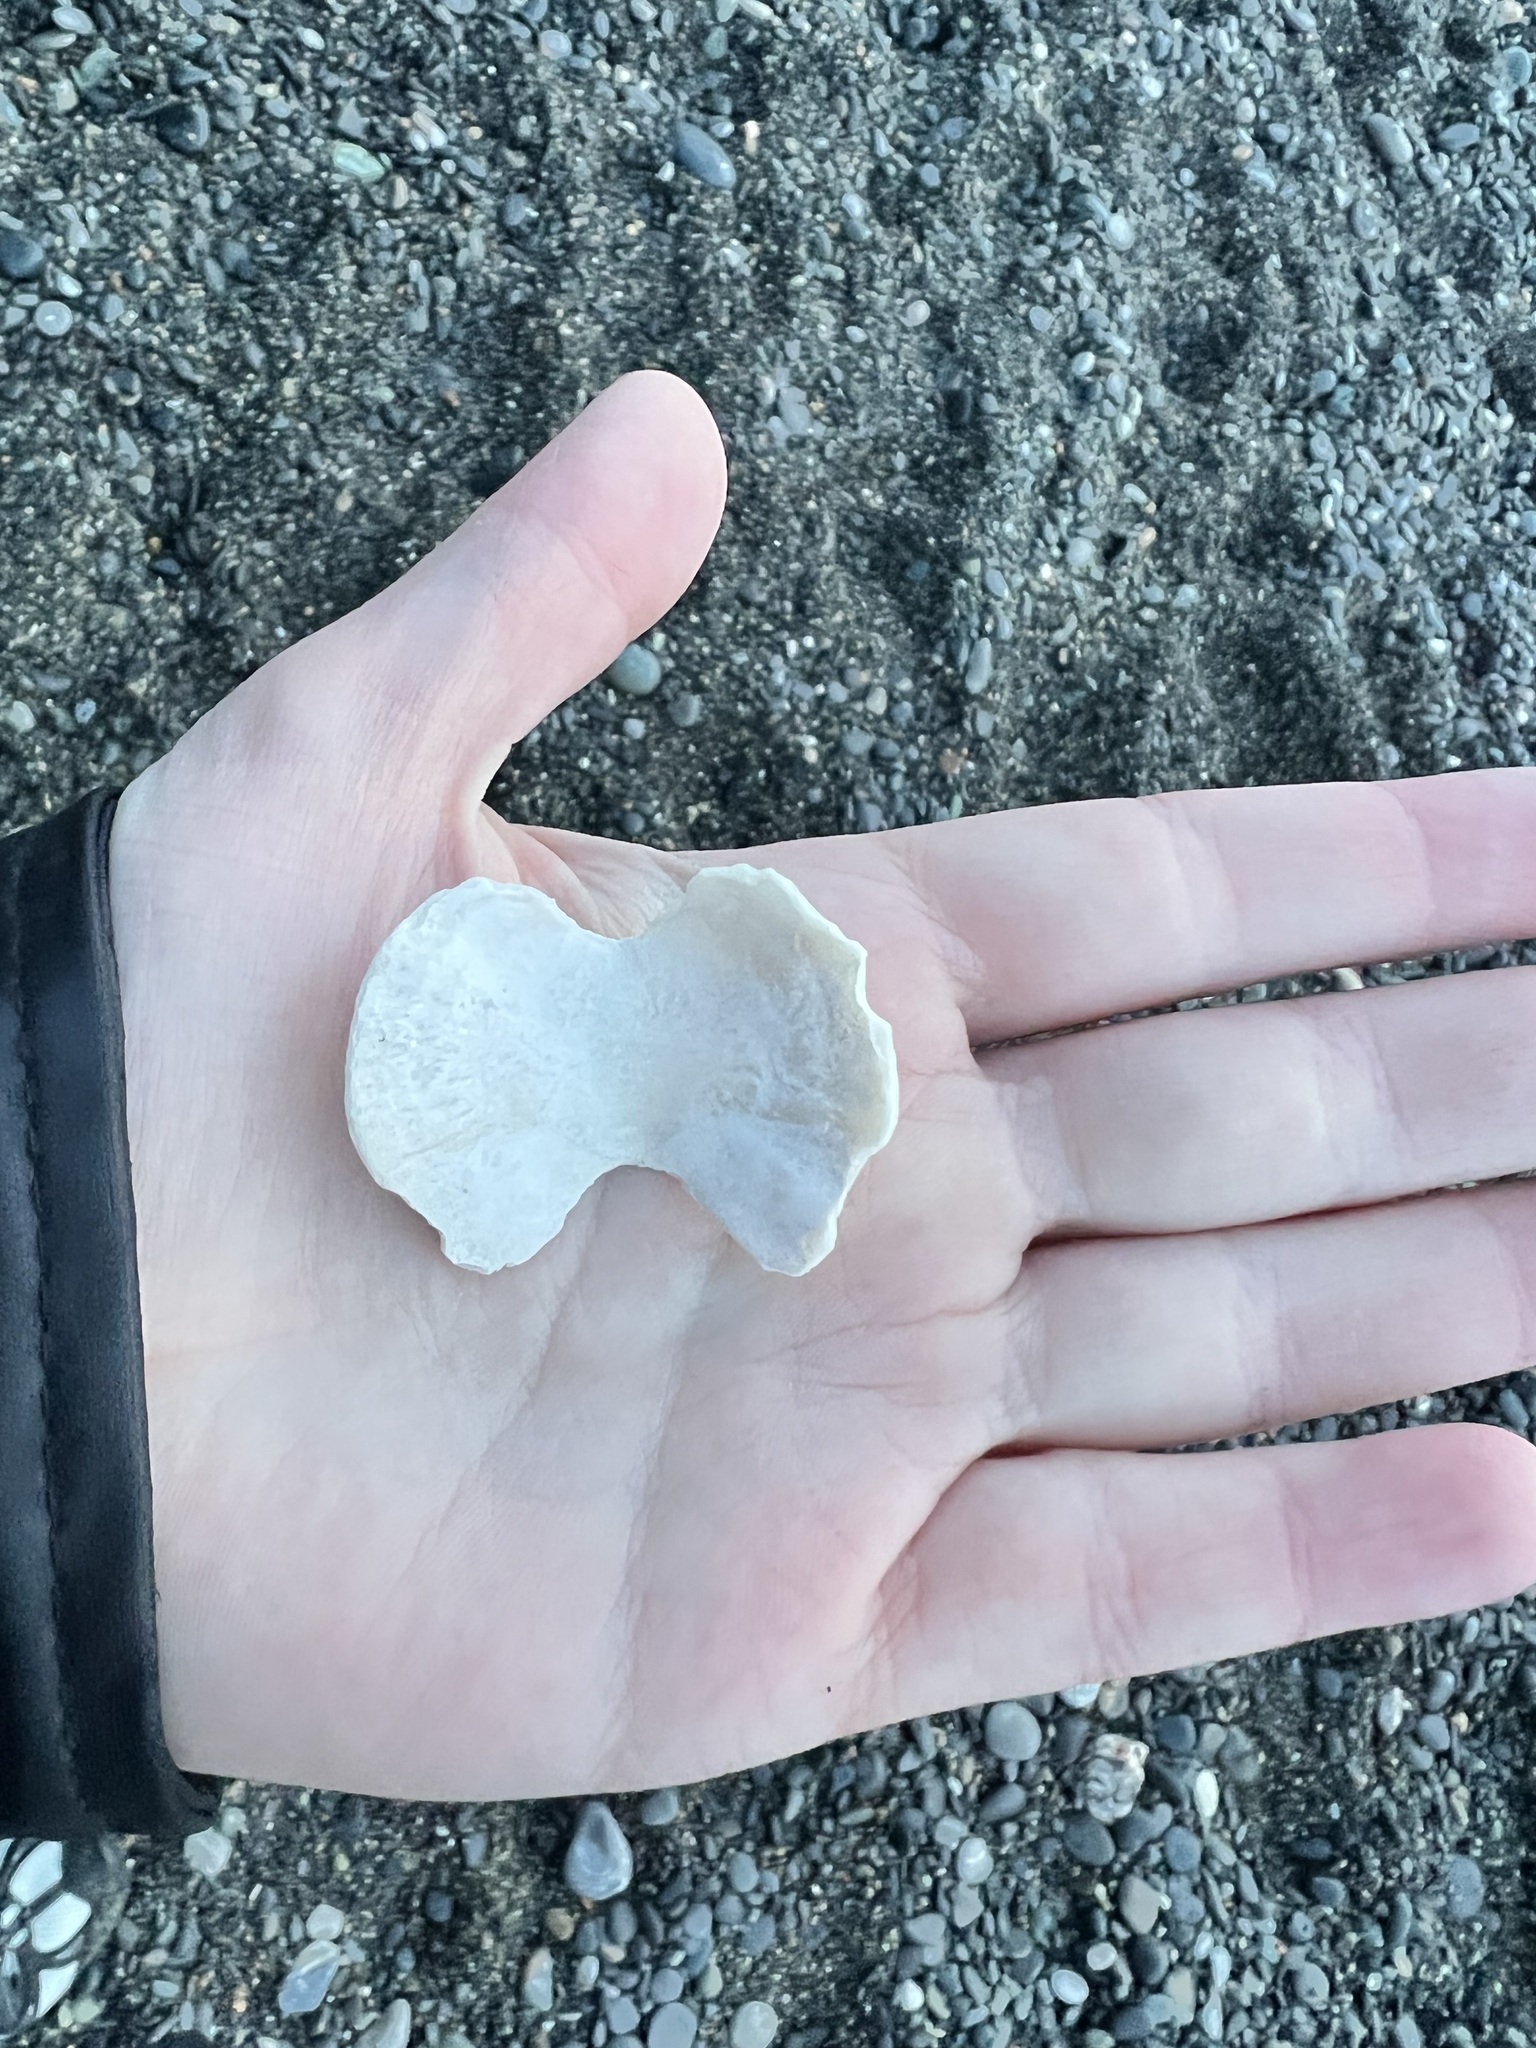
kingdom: Animalia
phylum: Mollusca
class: Polyplacophora
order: Chitonida
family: Acanthochitonidae
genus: Cryptochiton
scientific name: Cryptochiton stelleri
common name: Giant pacific chiton
